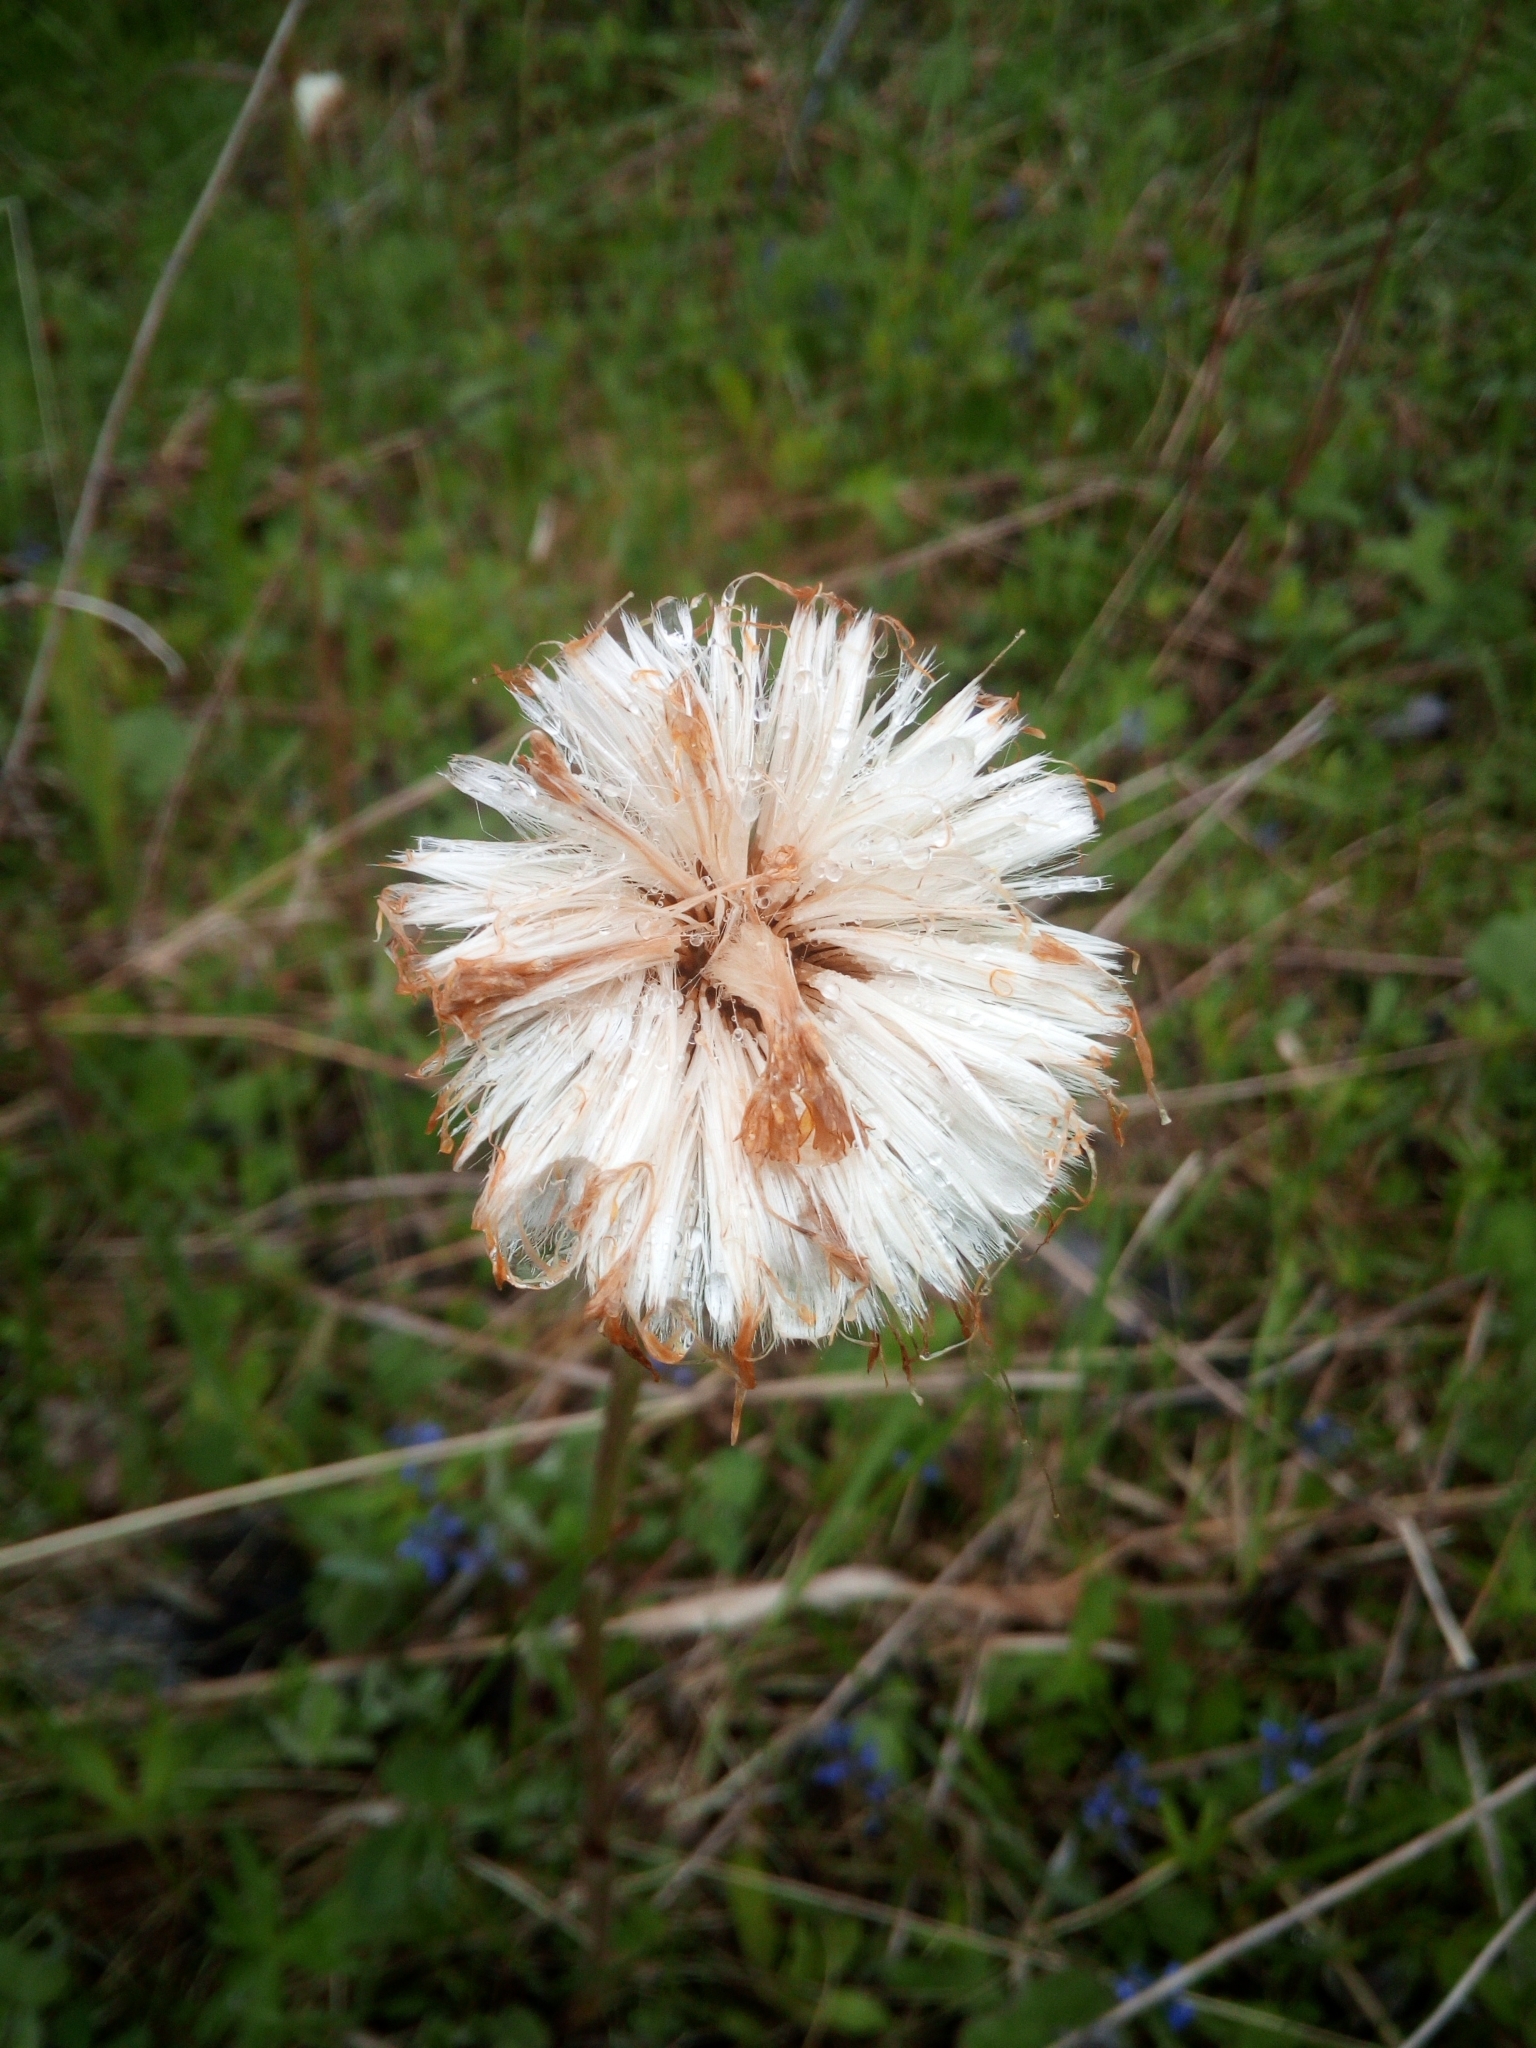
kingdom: Plantae
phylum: Tracheophyta
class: Magnoliopsida
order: Asterales
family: Asteraceae
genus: Tussilago
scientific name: Tussilago farfara
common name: Coltsfoot
